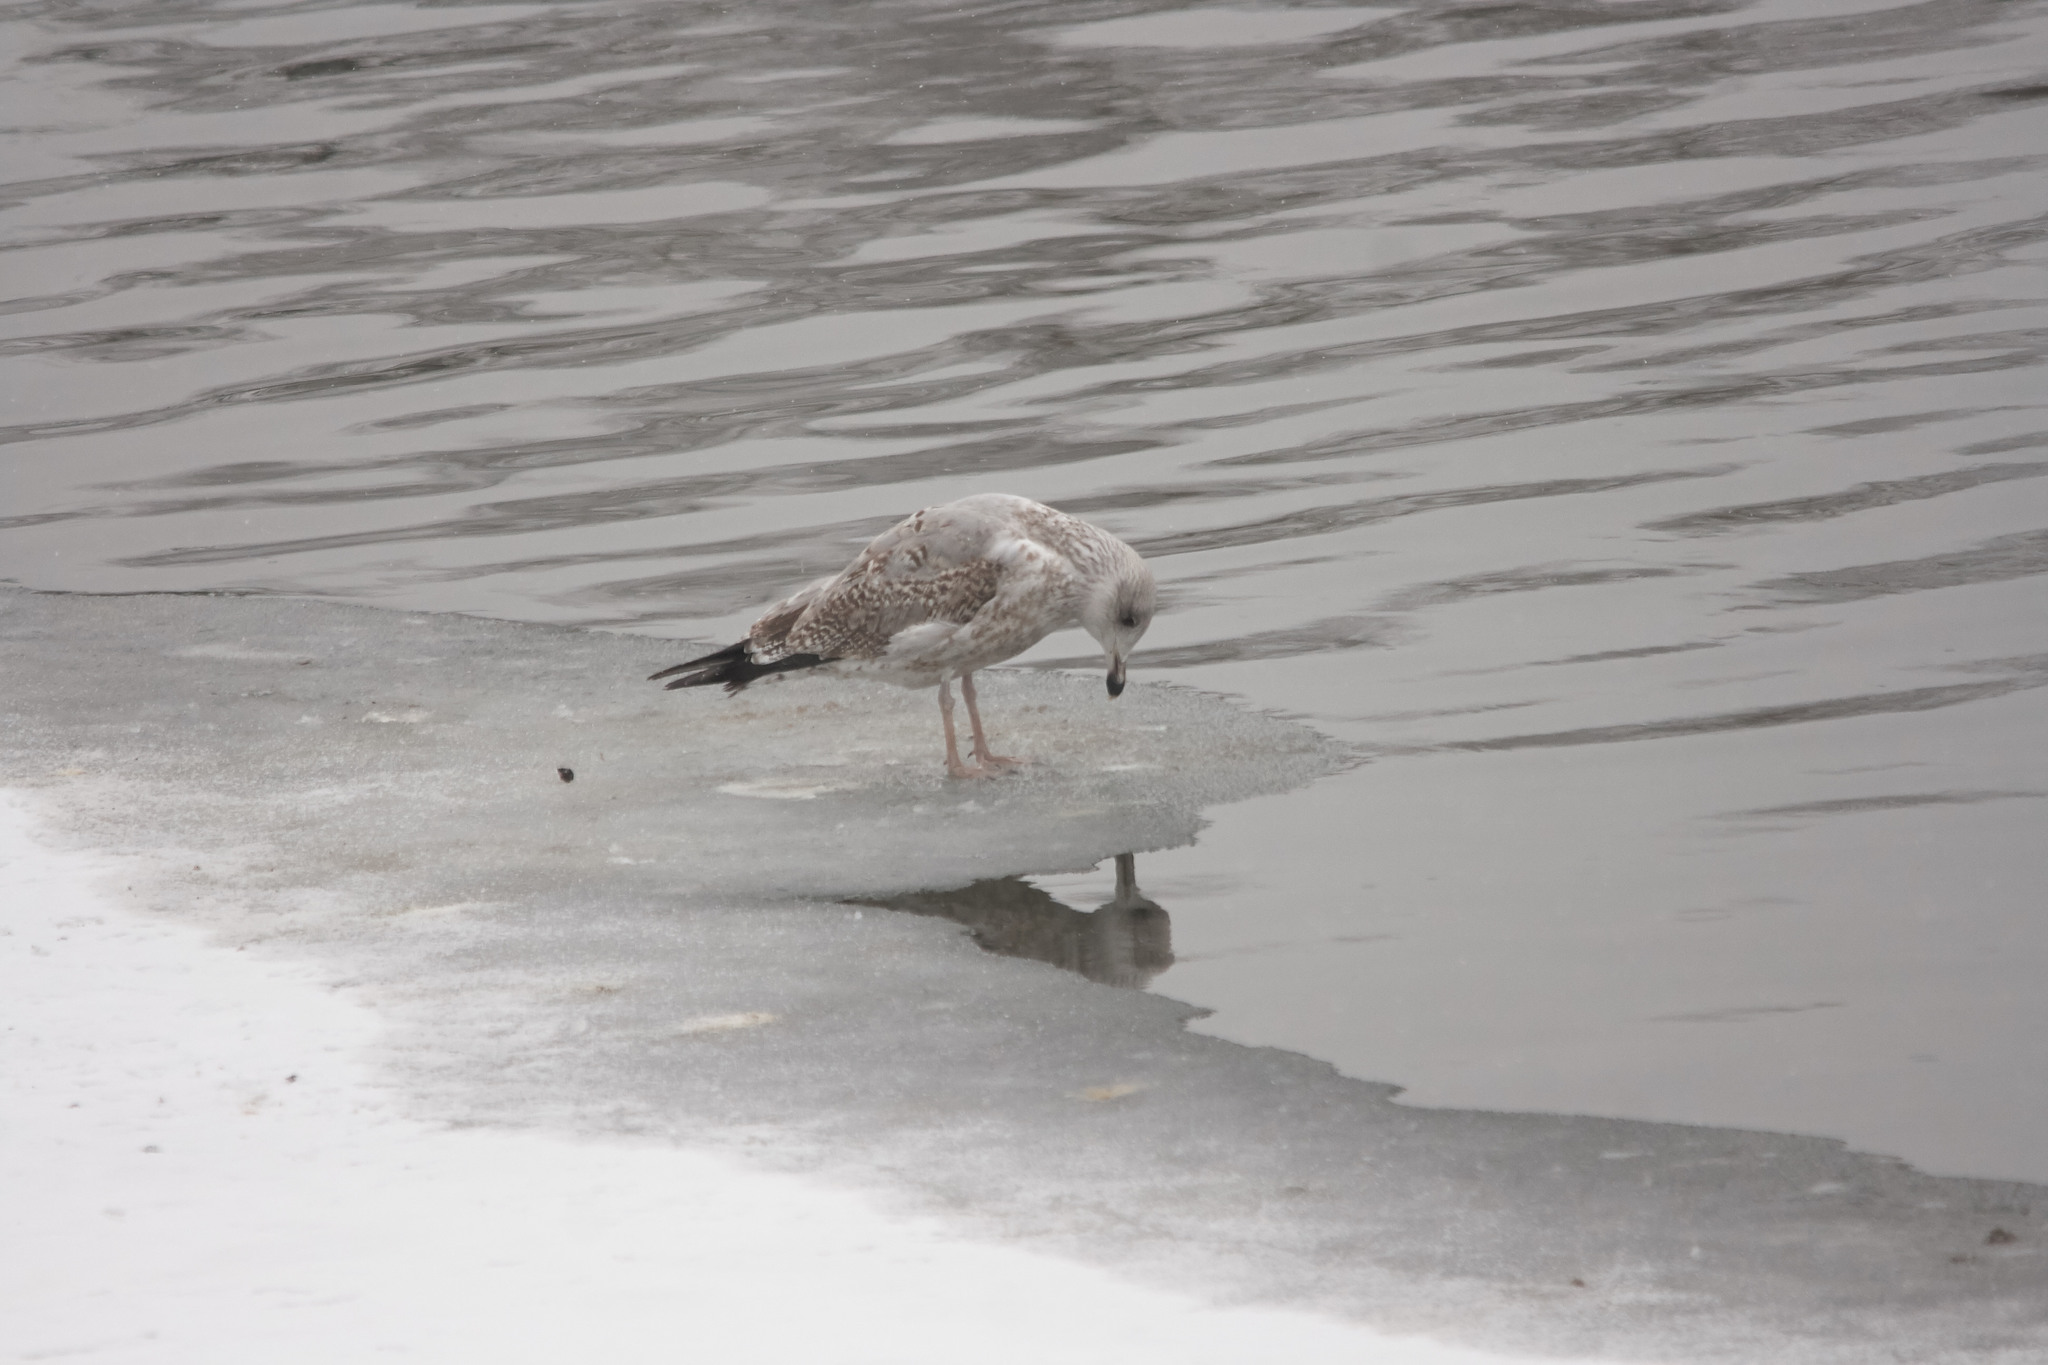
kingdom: Animalia
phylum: Chordata
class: Aves
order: Charadriiformes
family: Laridae
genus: Larus
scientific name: Larus argentatus
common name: Herring gull
